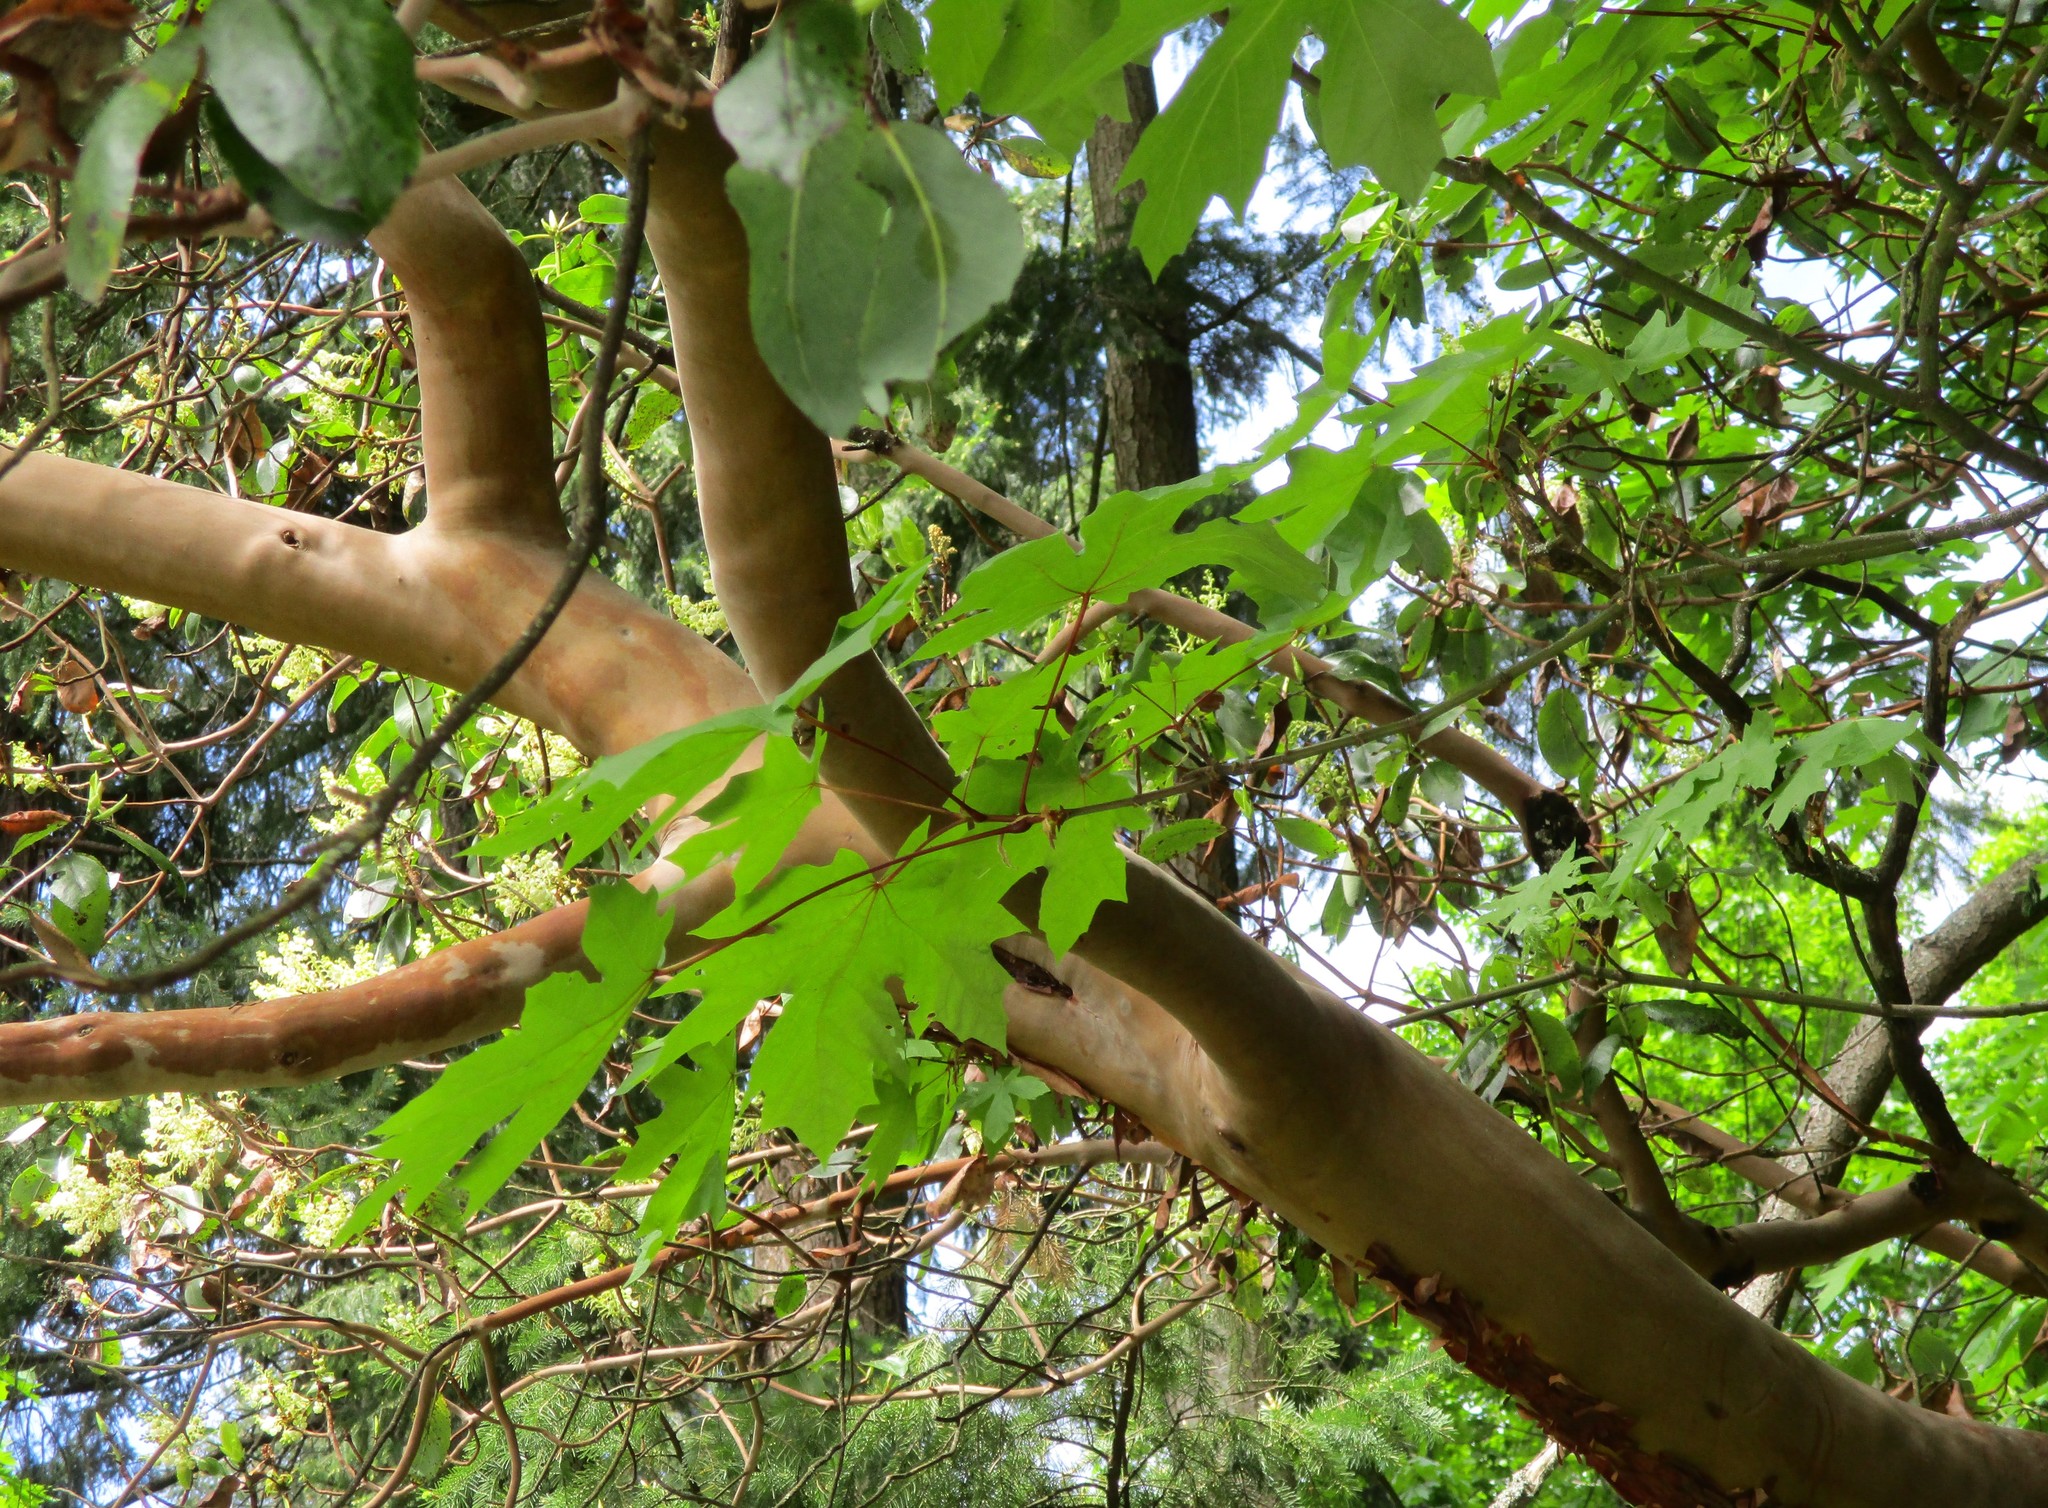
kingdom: Plantae
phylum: Tracheophyta
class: Magnoliopsida
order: Ericales
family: Ericaceae
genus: Arbutus
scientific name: Arbutus menziesii
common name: Pacific madrone
